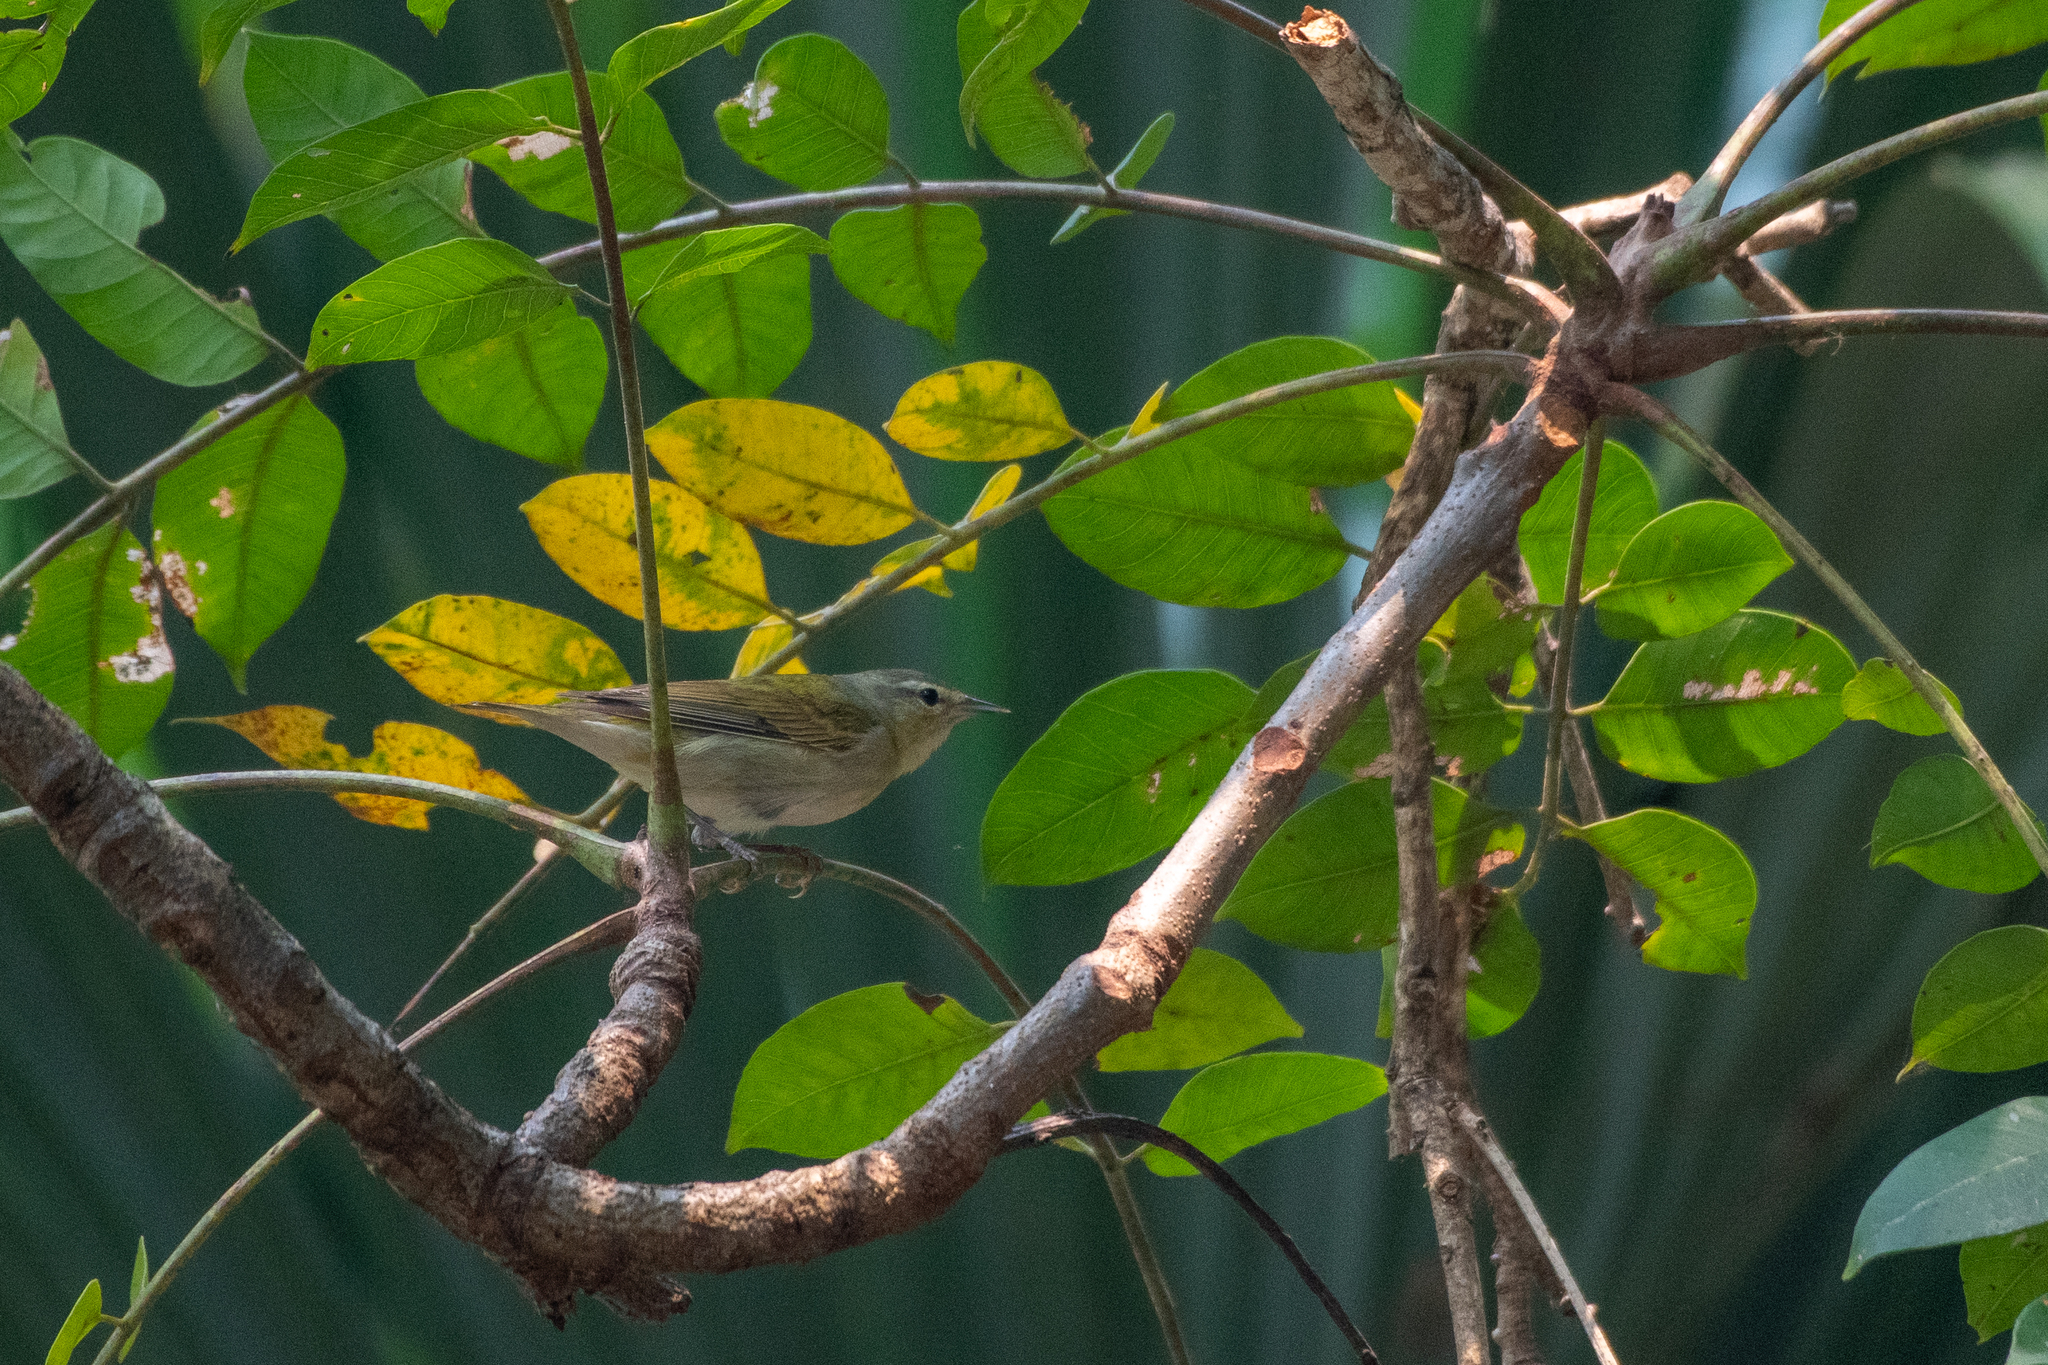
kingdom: Animalia
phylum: Chordata
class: Aves
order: Passeriformes
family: Parulidae
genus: Leiothlypis
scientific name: Leiothlypis peregrina
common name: Tennessee warbler
